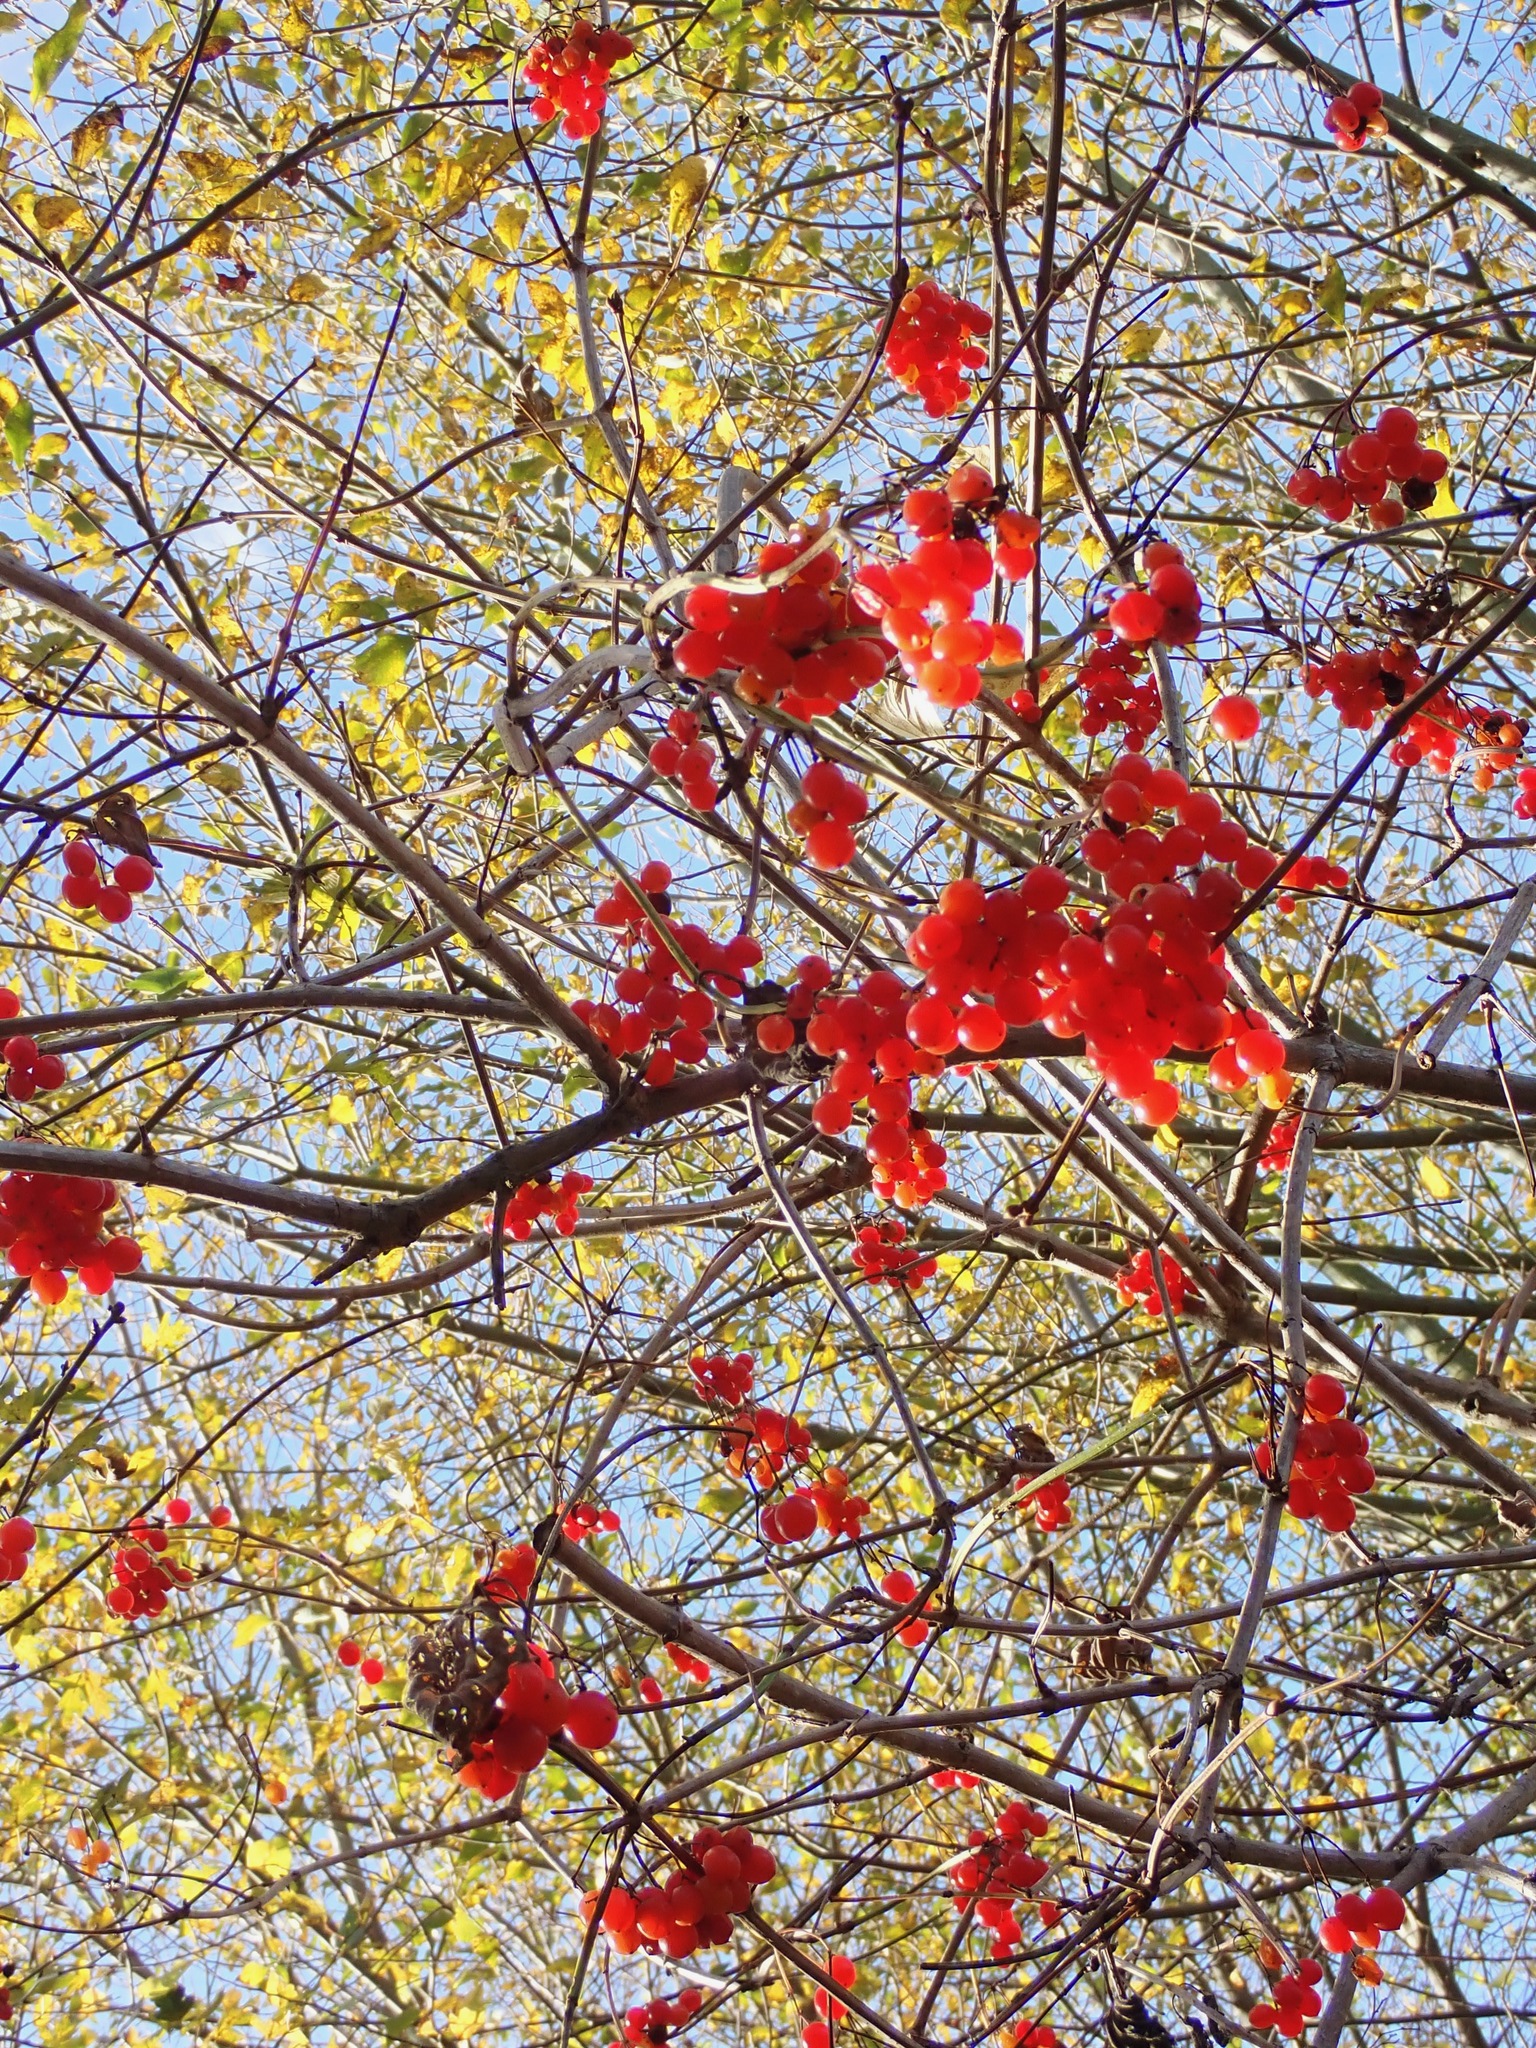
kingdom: Plantae
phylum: Tracheophyta
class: Magnoliopsida
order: Dipsacales
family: Viburnaceae
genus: Viburnum
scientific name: Viburnum opulus
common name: Guelder-rose
